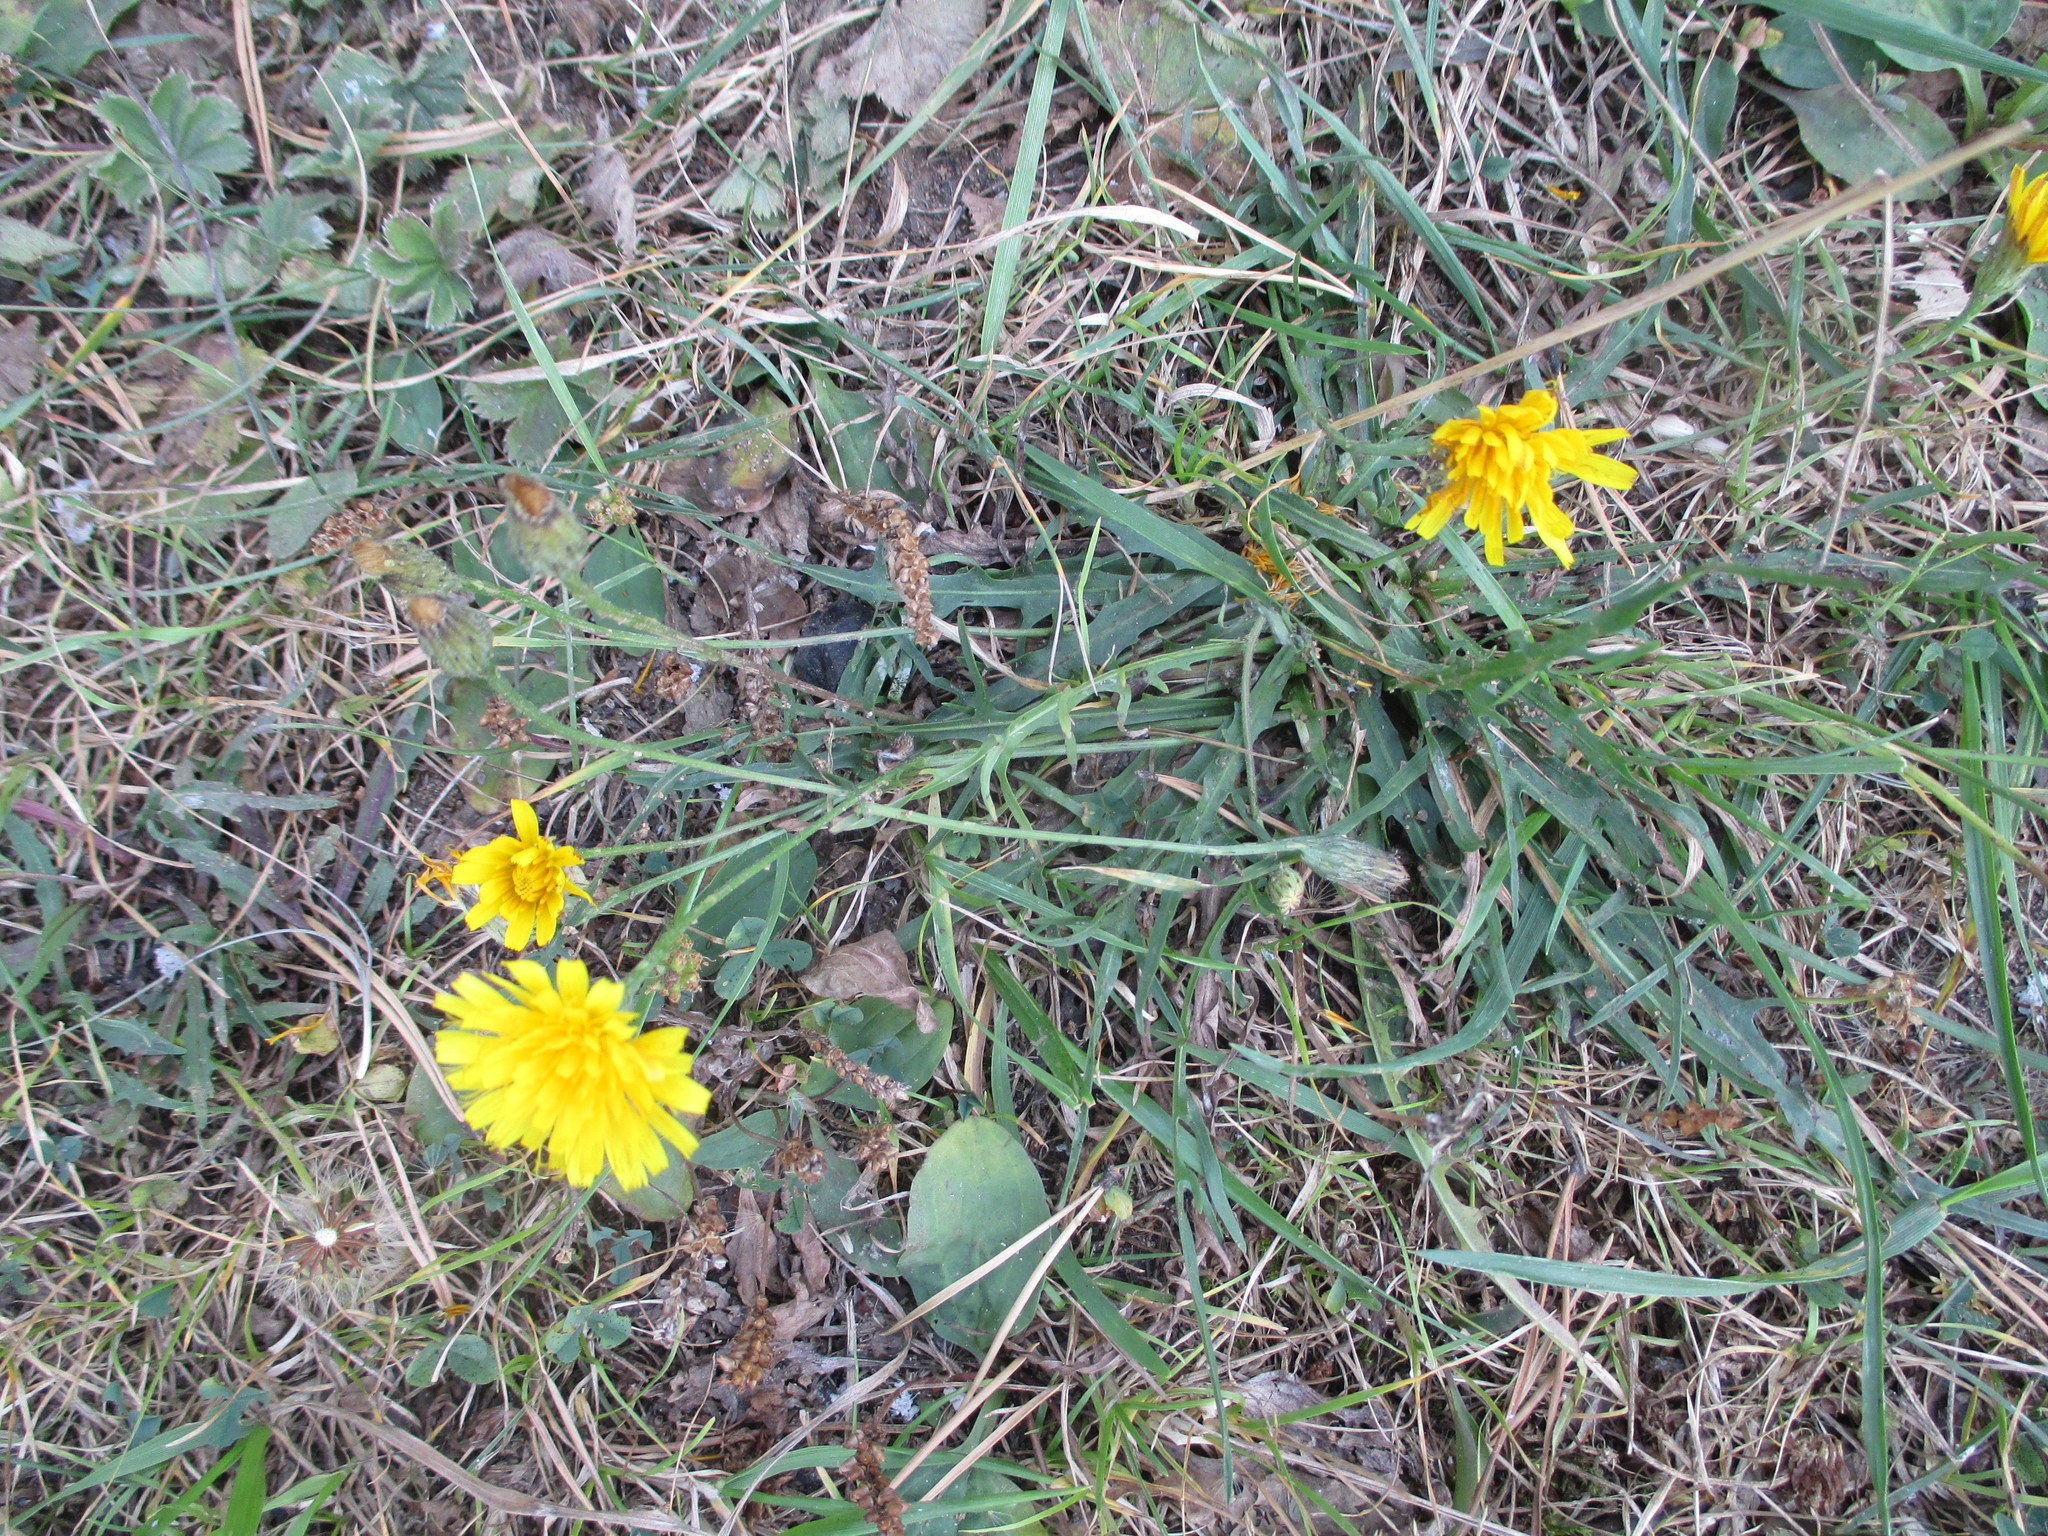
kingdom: Plantae
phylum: Tracheophyta
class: Magnoliopsida
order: Asterales
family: Asteraceae
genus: Scorzoneroides
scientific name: Scorzoneroides autumnalis
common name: Autumn hawkbit
